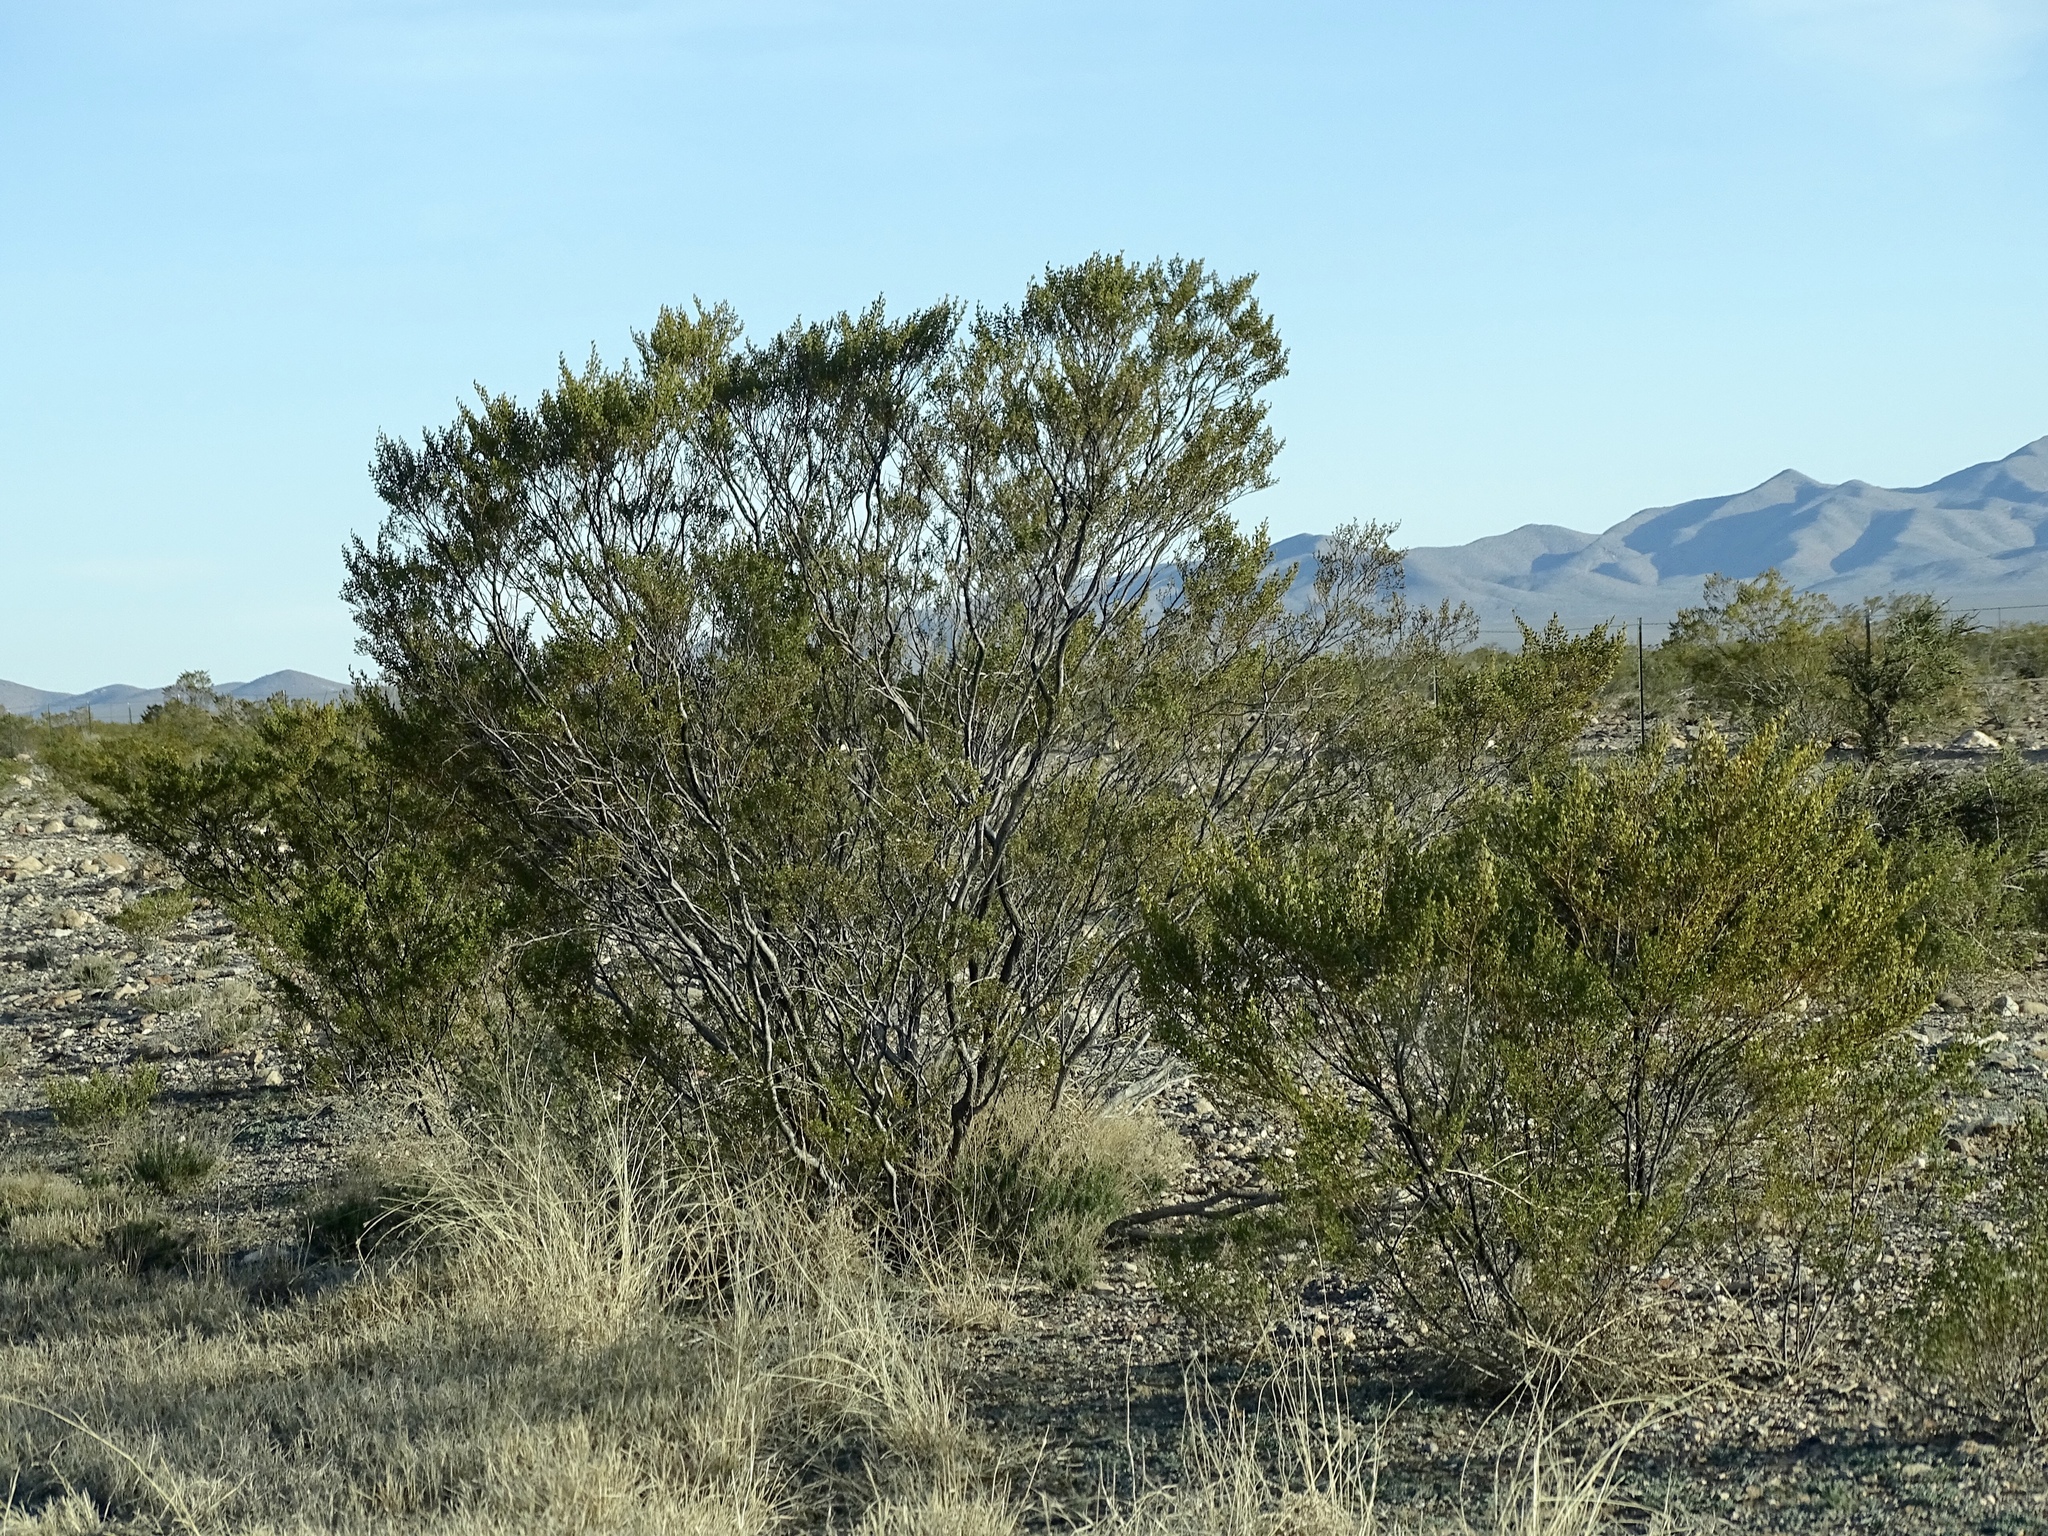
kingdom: Plantae
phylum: Tracheophyta
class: Magnoliopsida
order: Zygophyllales
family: Zygophyllaceae
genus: Larrea
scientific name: Larrea tridentata
